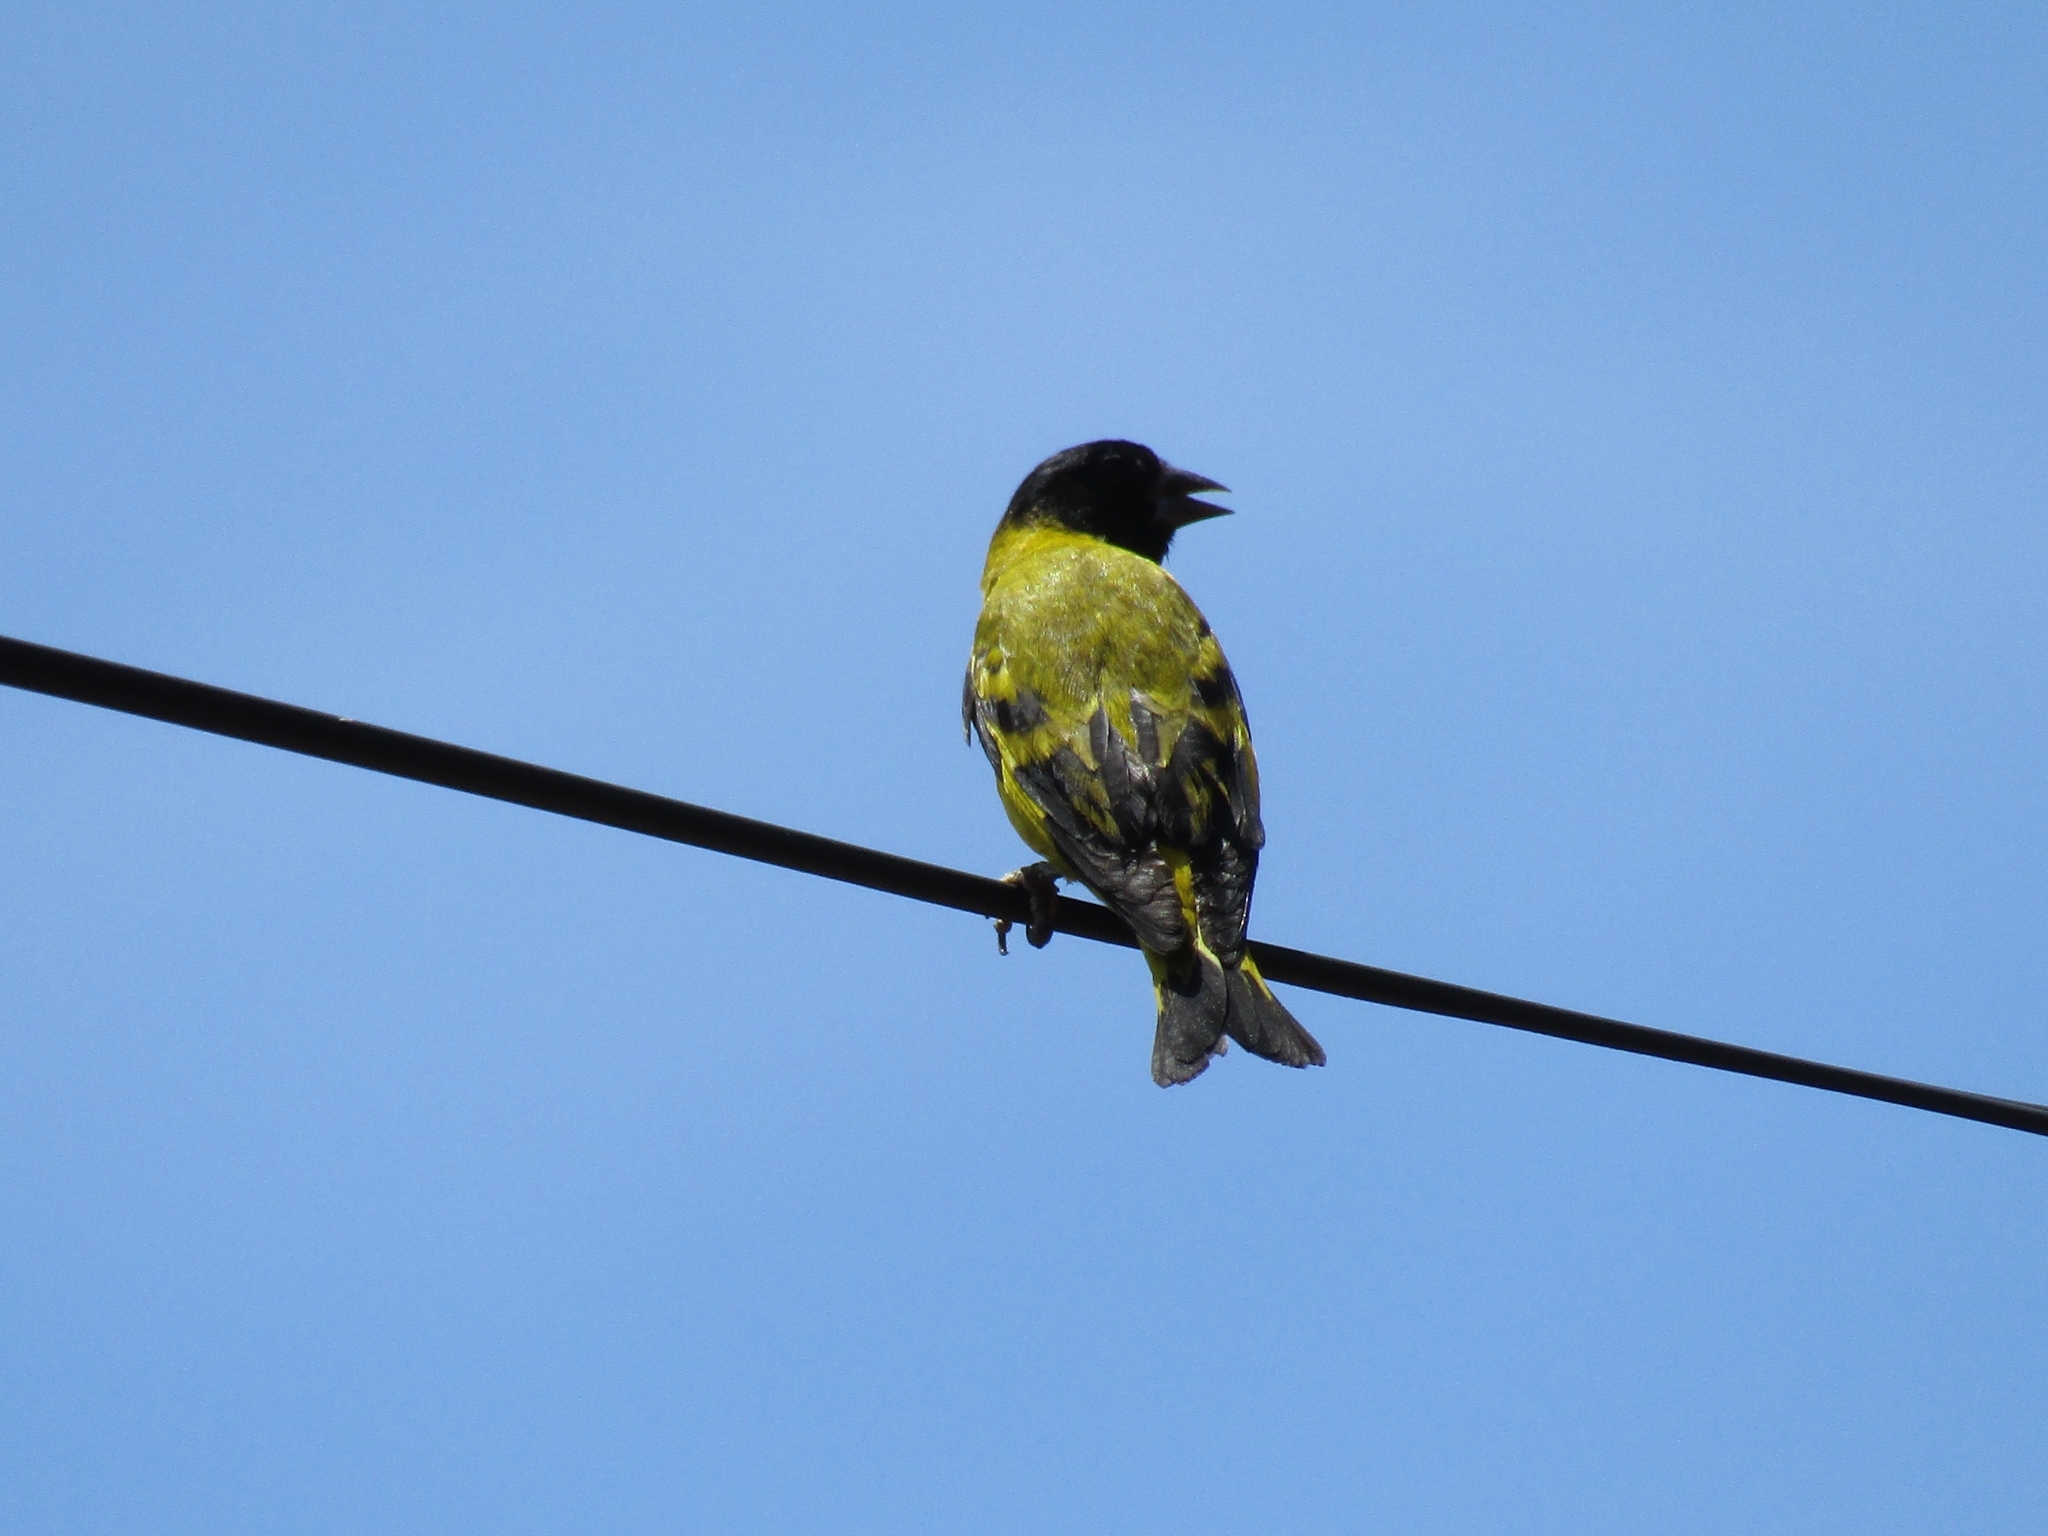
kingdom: Animalia
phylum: Chordata
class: Aves
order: Passeriformes
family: Fringillidae
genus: Spinus
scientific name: Spinus magellanicus
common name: Hooded siskin
